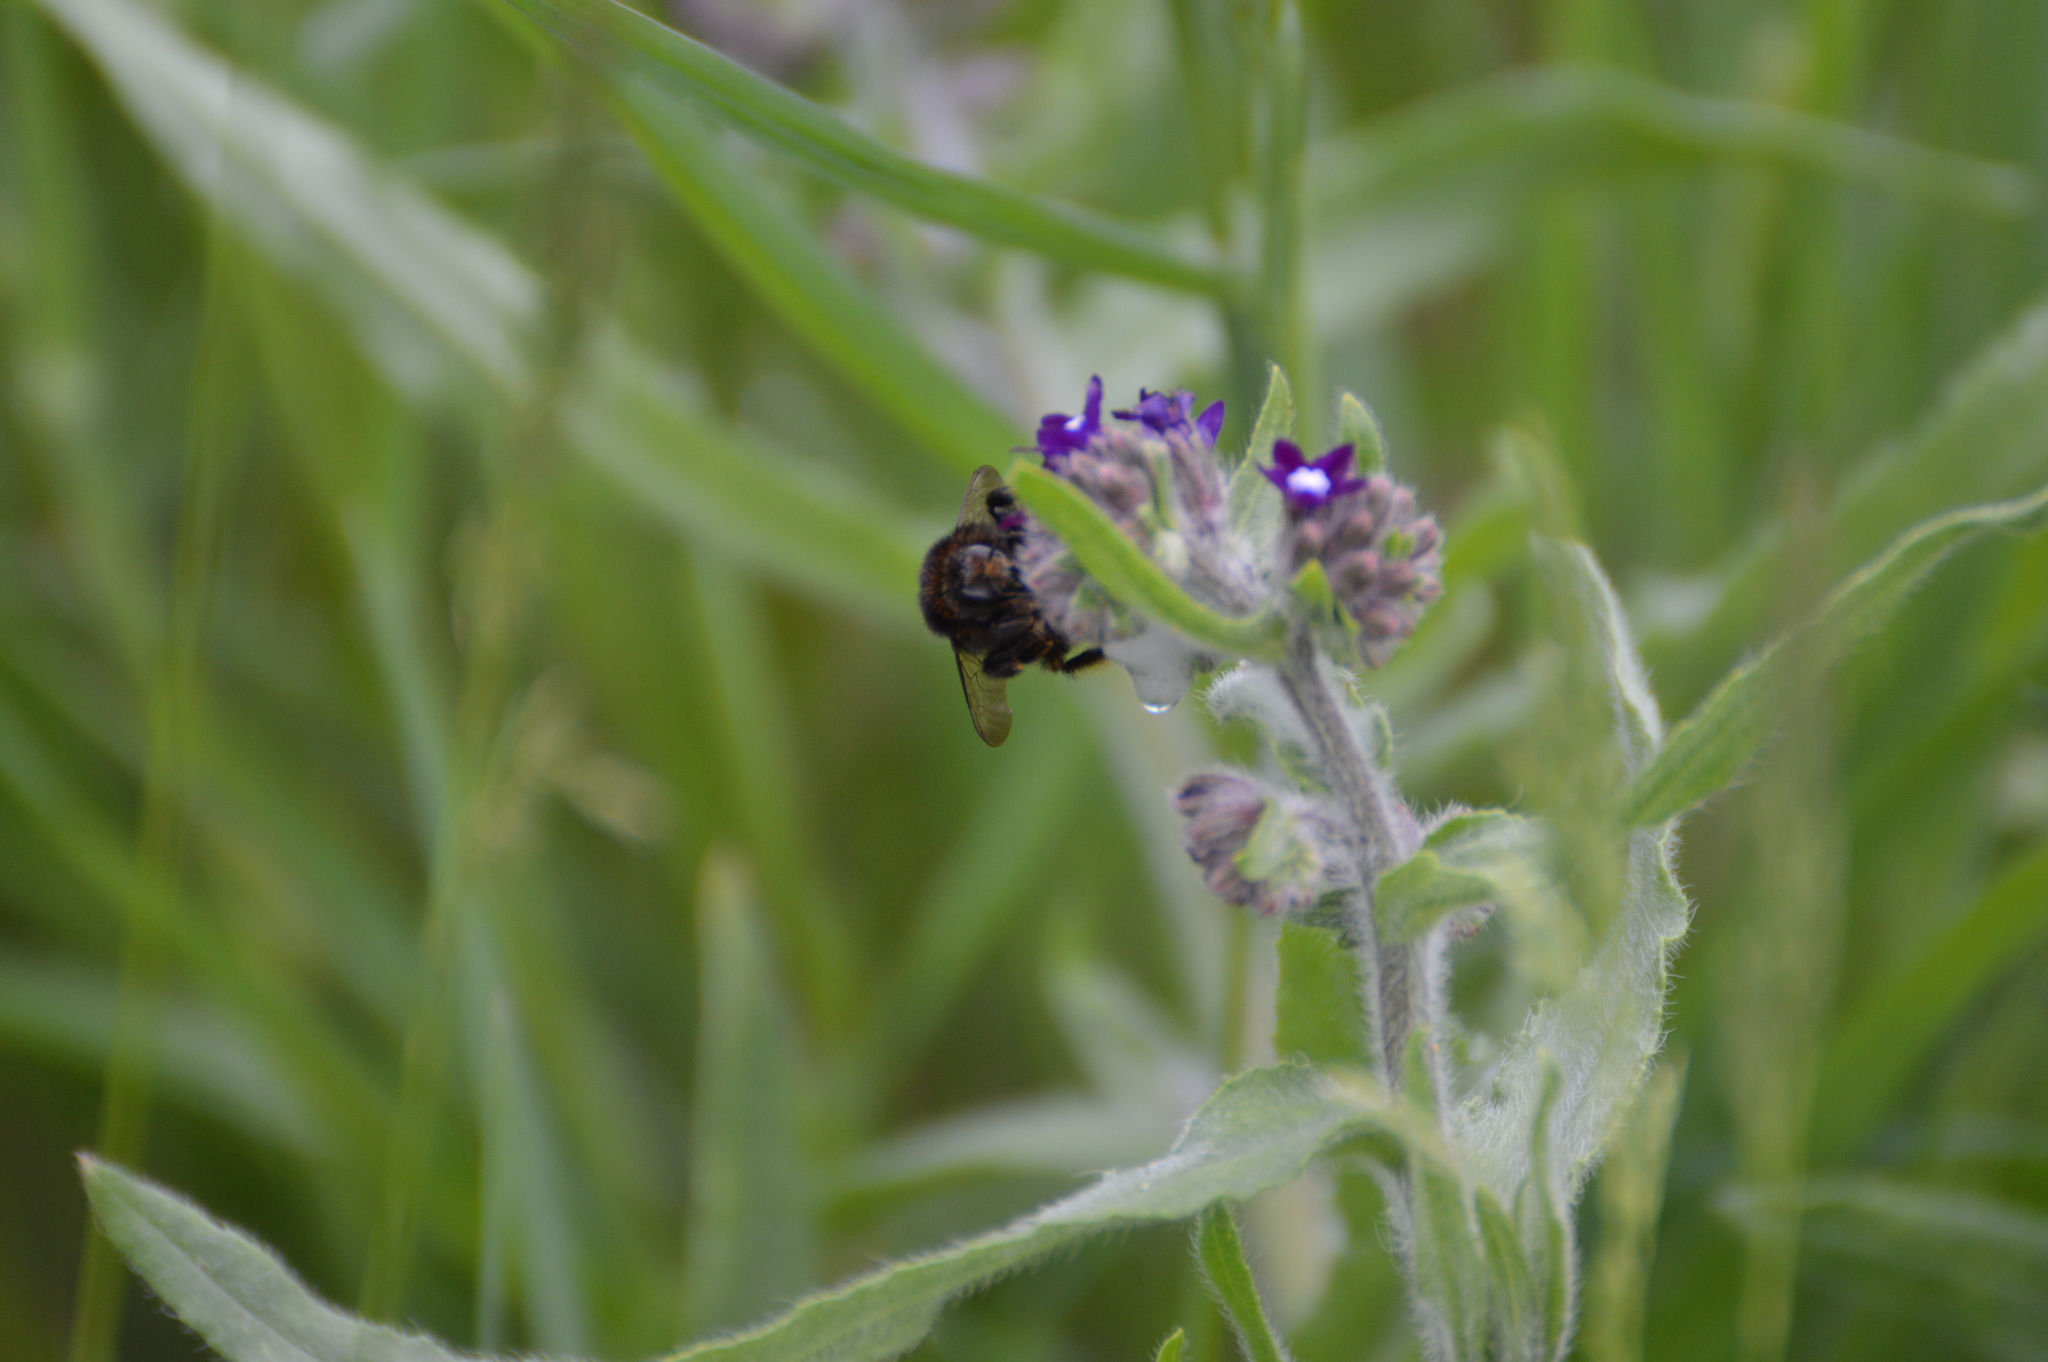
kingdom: Animalia
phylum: Arthropoda
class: Insecta
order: Hymenoptera
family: Apidae
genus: Bombus
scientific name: Bombus humilis
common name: Brown-banded carder-bee
